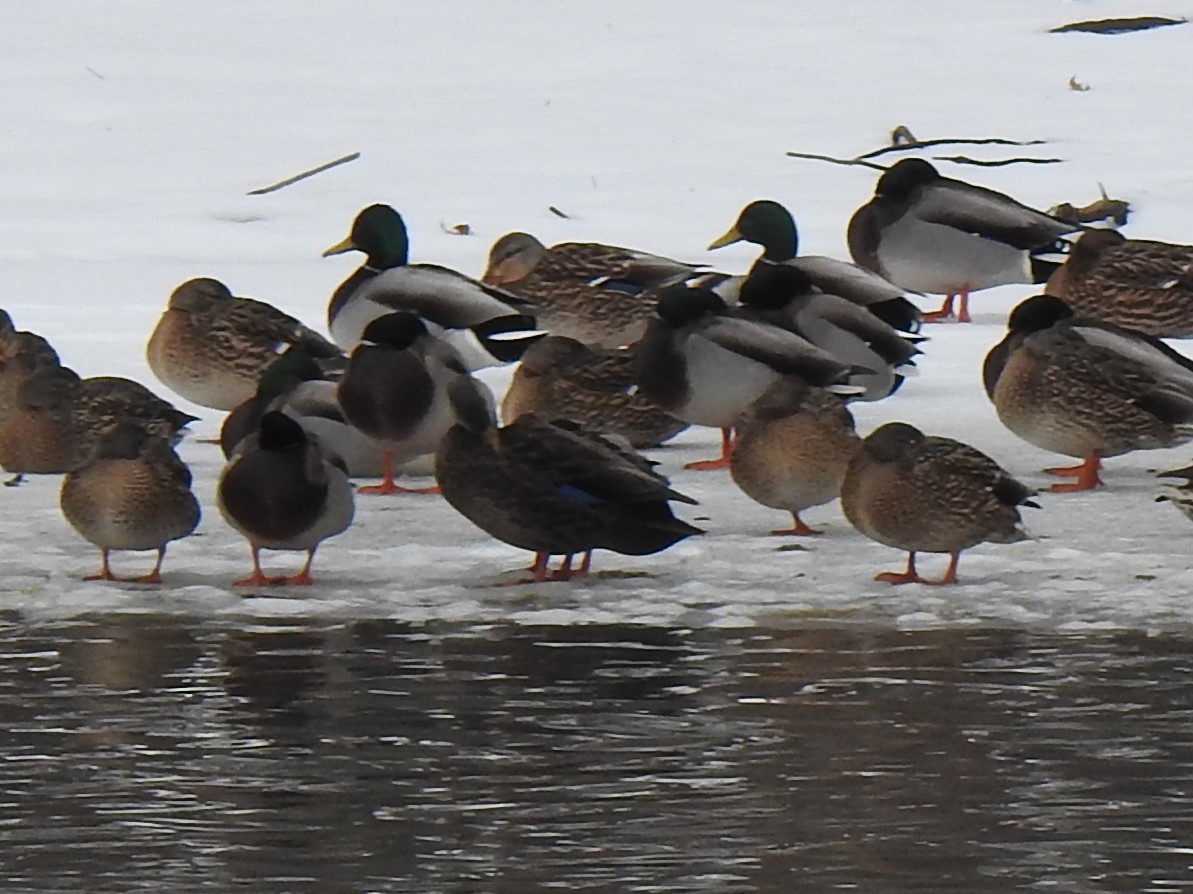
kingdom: Animalia
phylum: Chordata
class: Aves
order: Anseriformes
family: Anatidae
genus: Anas
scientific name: Anas rubripes
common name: American black duck
